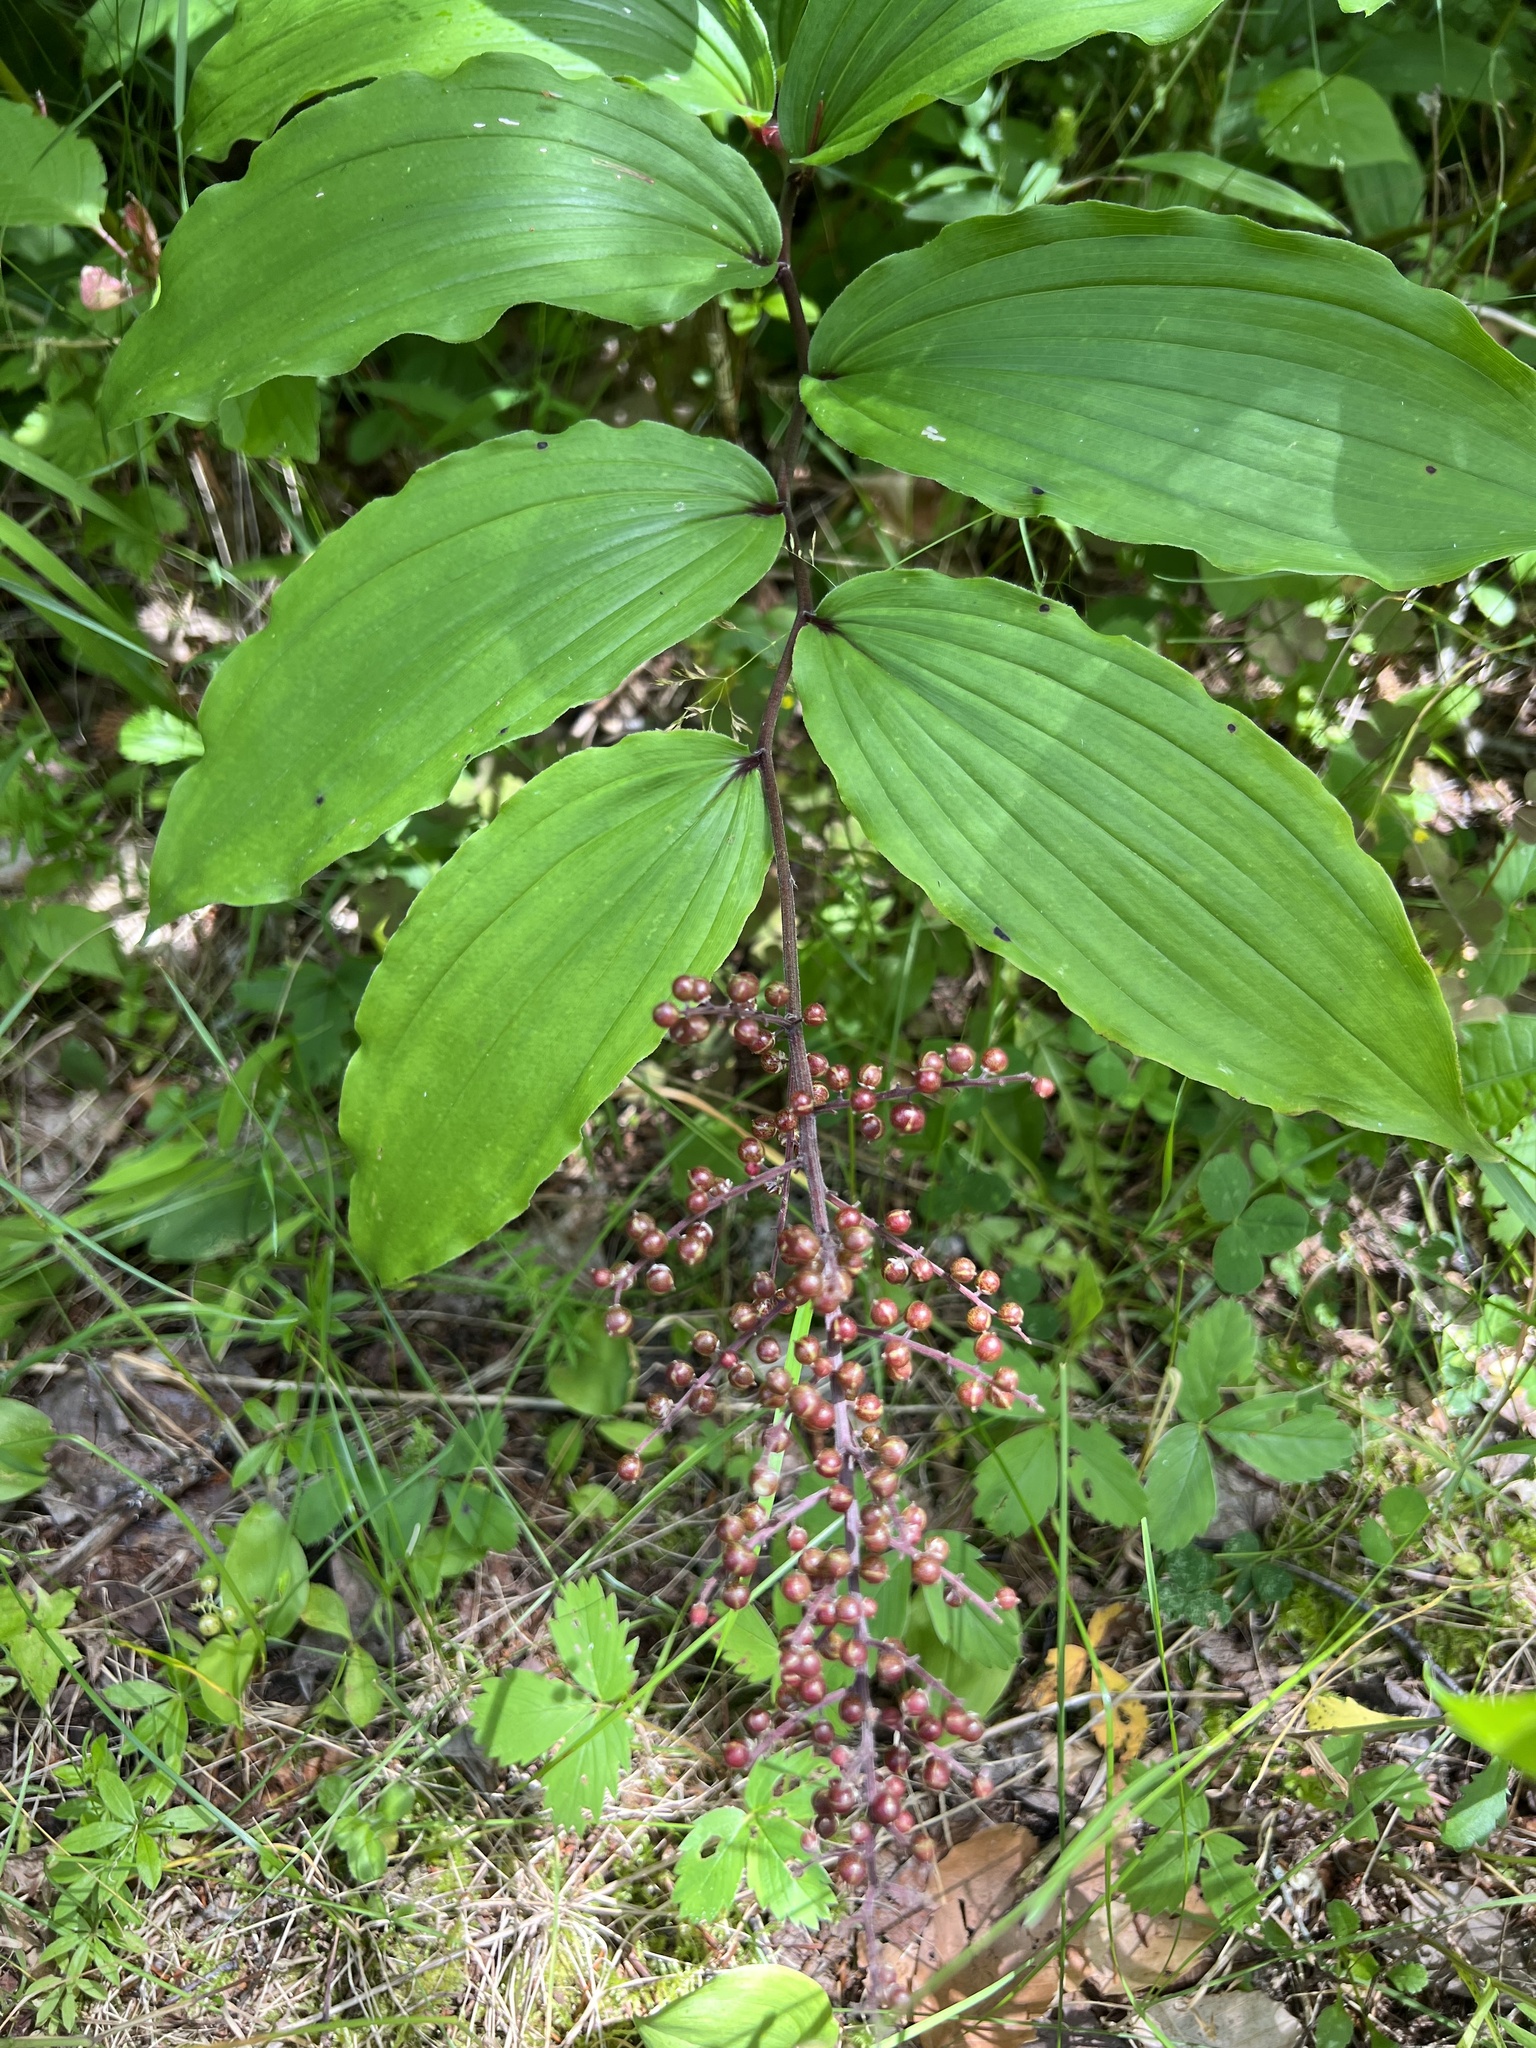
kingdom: Plantae
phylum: Tracheophyta
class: Liliopsida
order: Asparagales
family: Asparagaceae
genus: Maianthemum
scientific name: Maianthemum racemosum
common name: False spikenard
